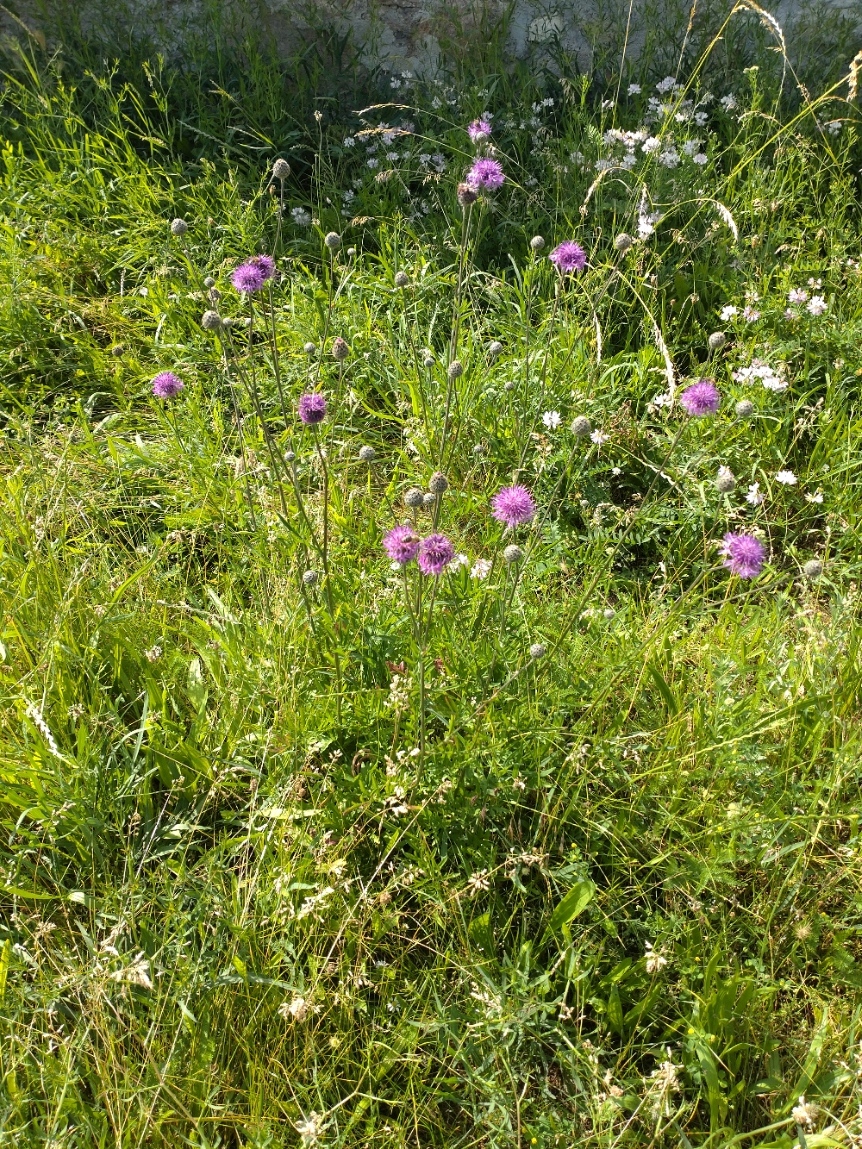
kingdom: Plantae
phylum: Tracheophyta
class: Magnoliopsida
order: Asterales
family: Asteraceae
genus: Centaurea
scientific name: Centaurea scabiosa
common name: Greater knapweed
